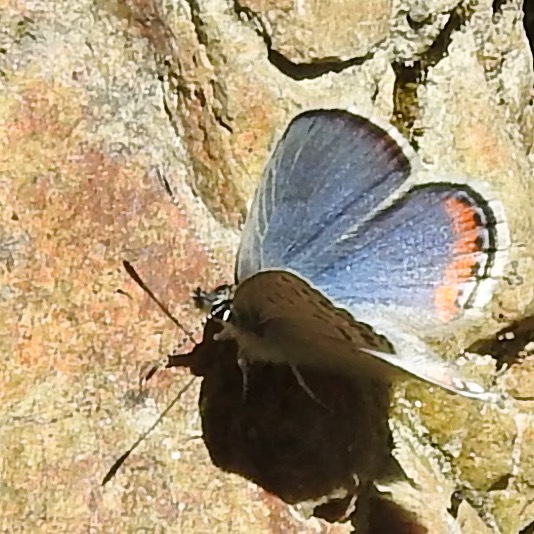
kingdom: Animalia
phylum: Arthropoda
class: Insecta
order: Lepidoptera
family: Lycaenidae
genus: Icaricia
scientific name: Icaricia acmon
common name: Acmon blue
